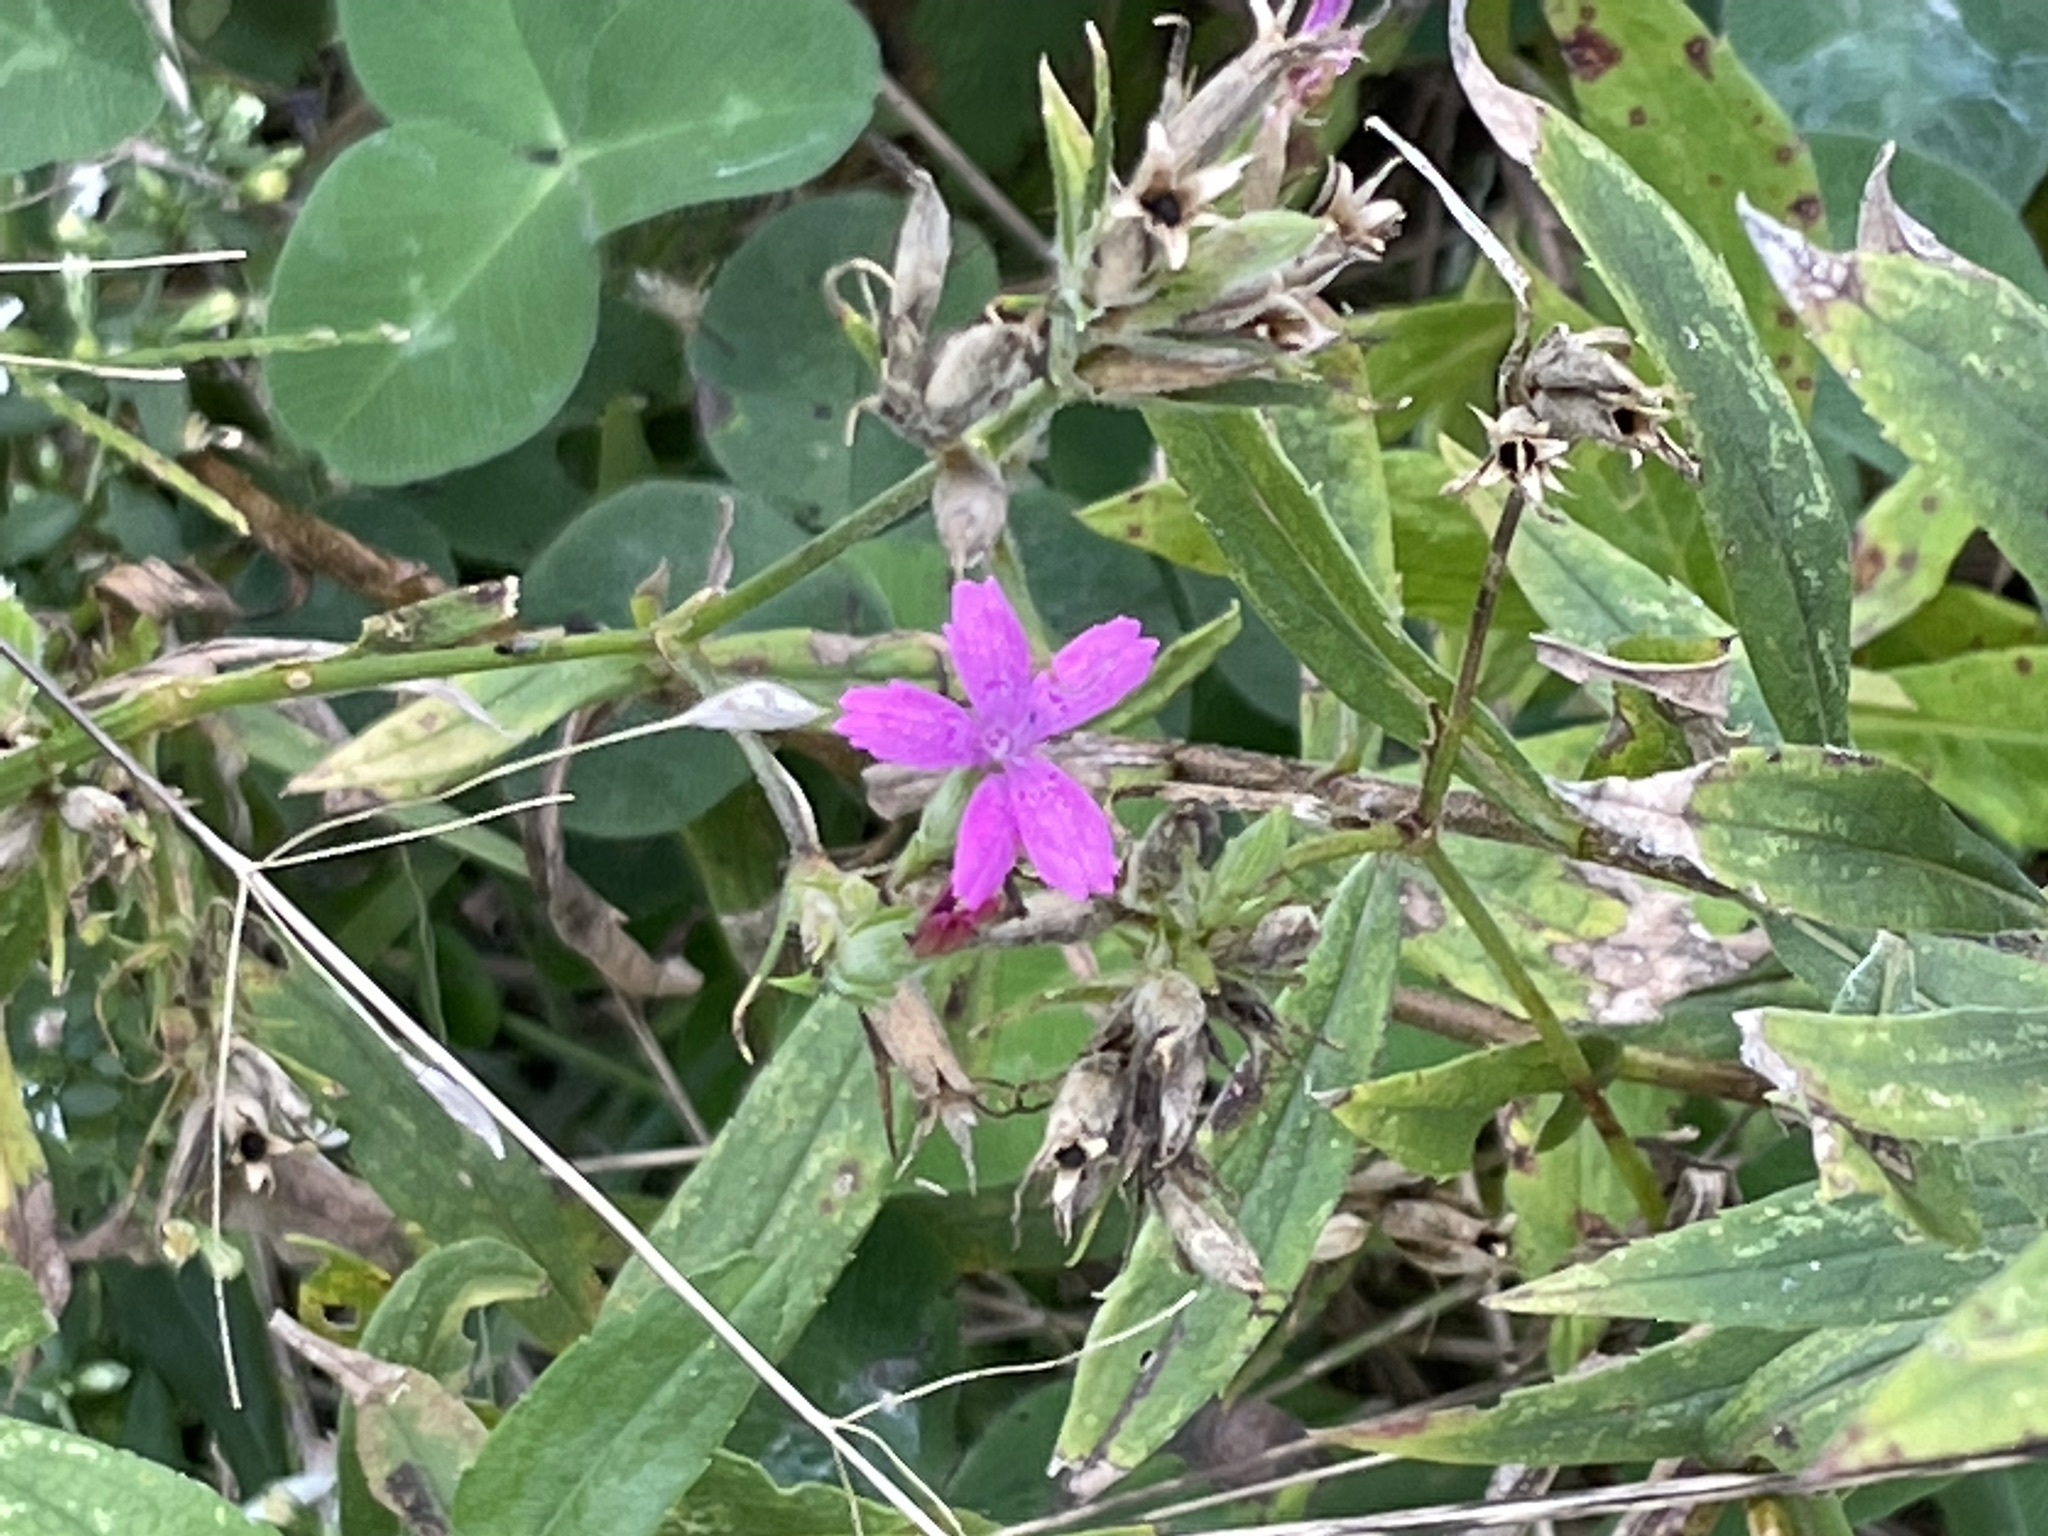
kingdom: Plantae
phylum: Tracheophyta
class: Magnoliopsida
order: Caryophyllales
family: Caryophyllaceae
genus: Dianthus
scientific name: Dianthus armeria
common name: Deptford pink
